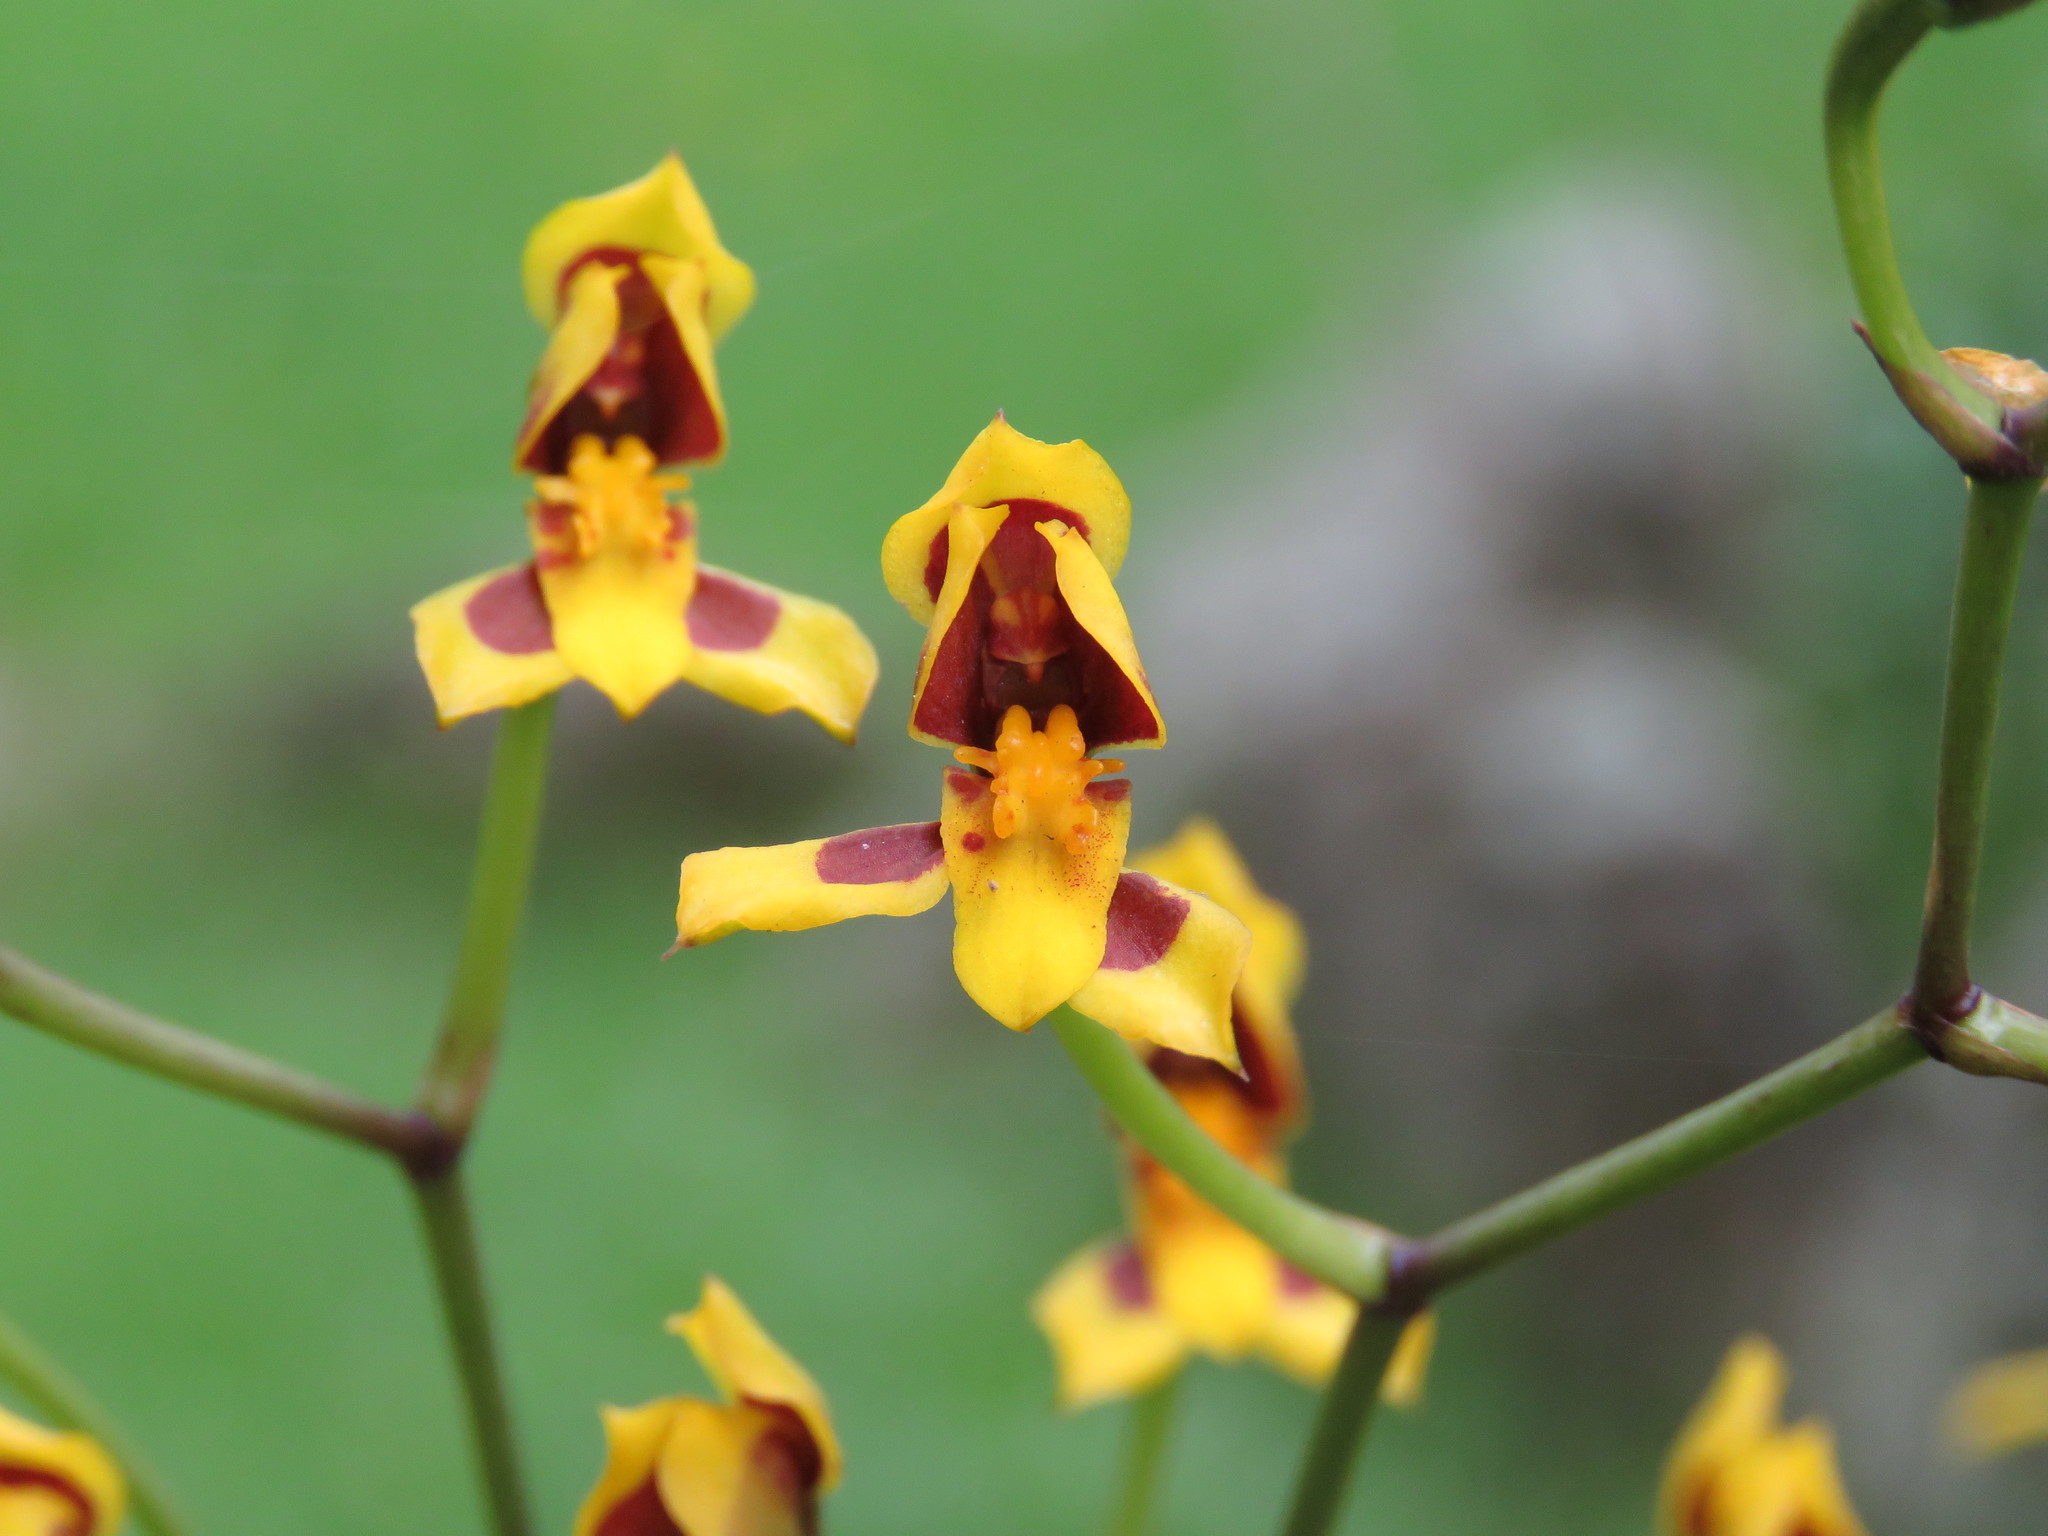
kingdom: Plantae
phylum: Tracheophyta
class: Liliopsida
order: Asparagales
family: Orchidaceae
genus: Cyrtochilum
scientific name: Cyrtochilum densiflorum
